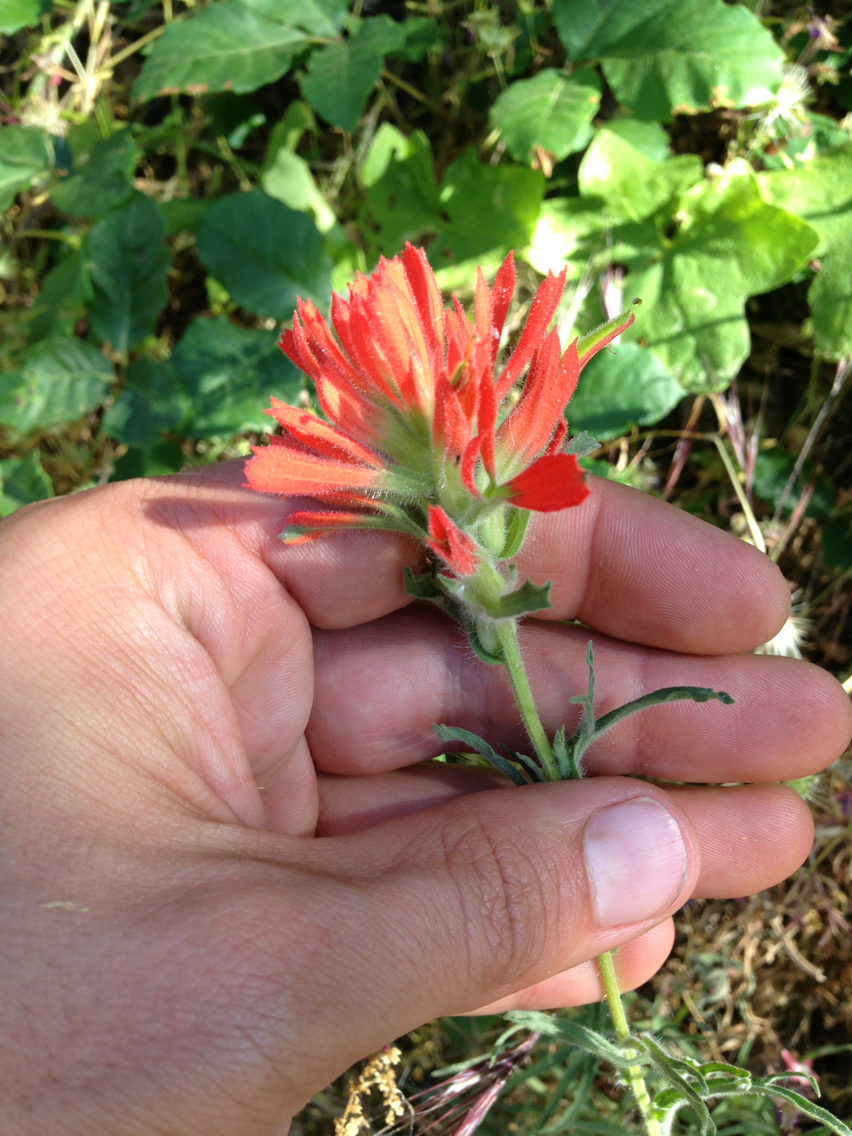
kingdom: Plantae
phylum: Tracheophyta
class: Magnoliopsida
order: Lamiales
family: Orobanchaceae
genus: Castilleja
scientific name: Castilleja affinis
